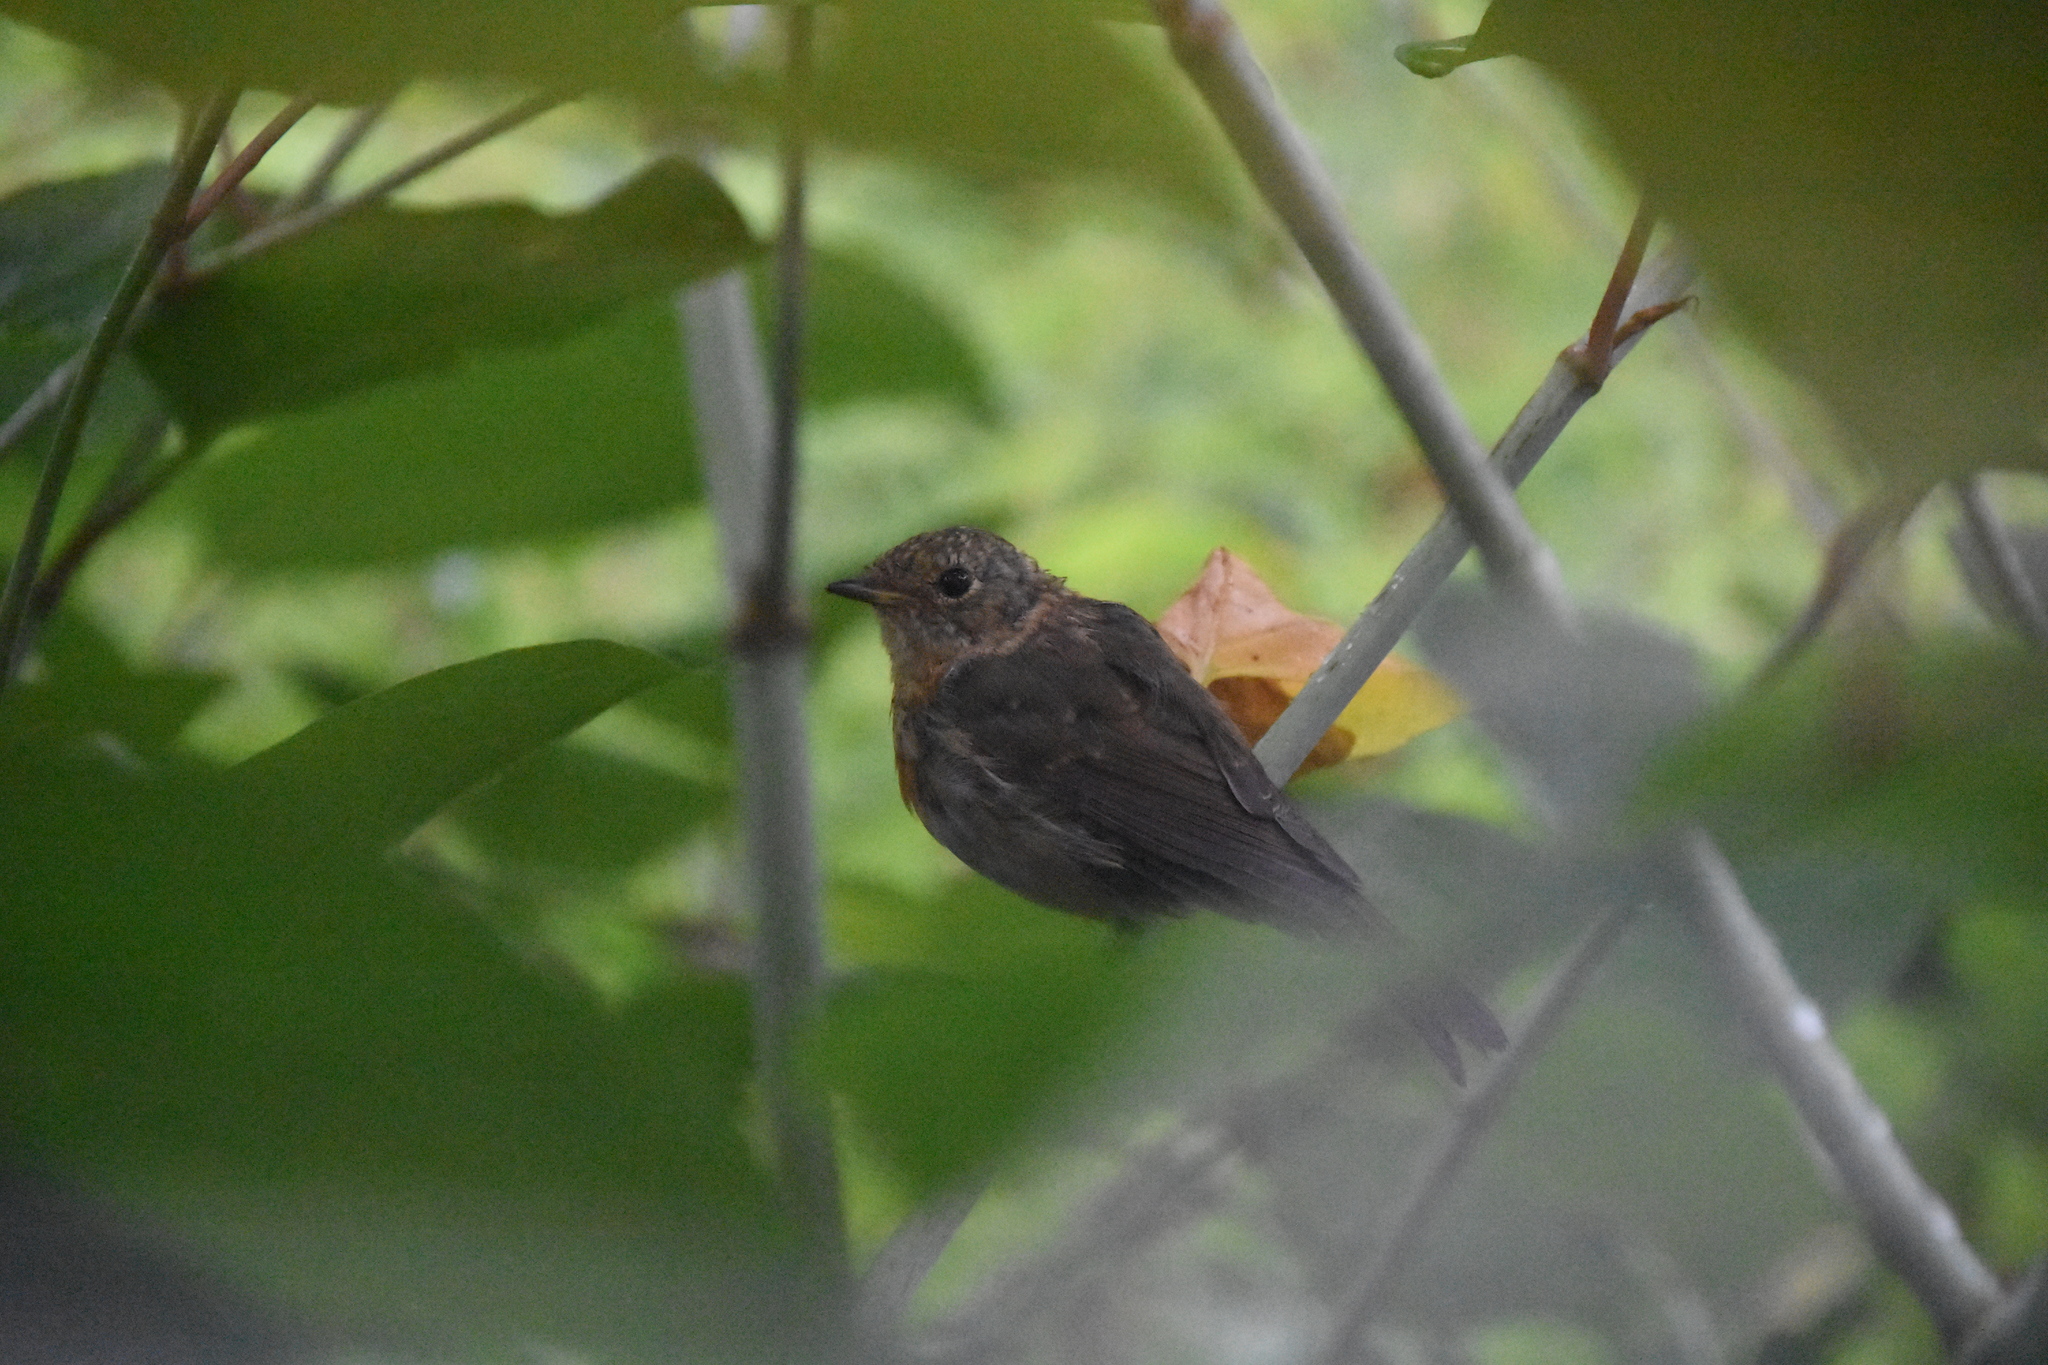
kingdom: Animalia
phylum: Chordata
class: Aves
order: Passeriformes
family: Muscicapidae
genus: Erithacus
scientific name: Erithacus rubecula
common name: European robin
